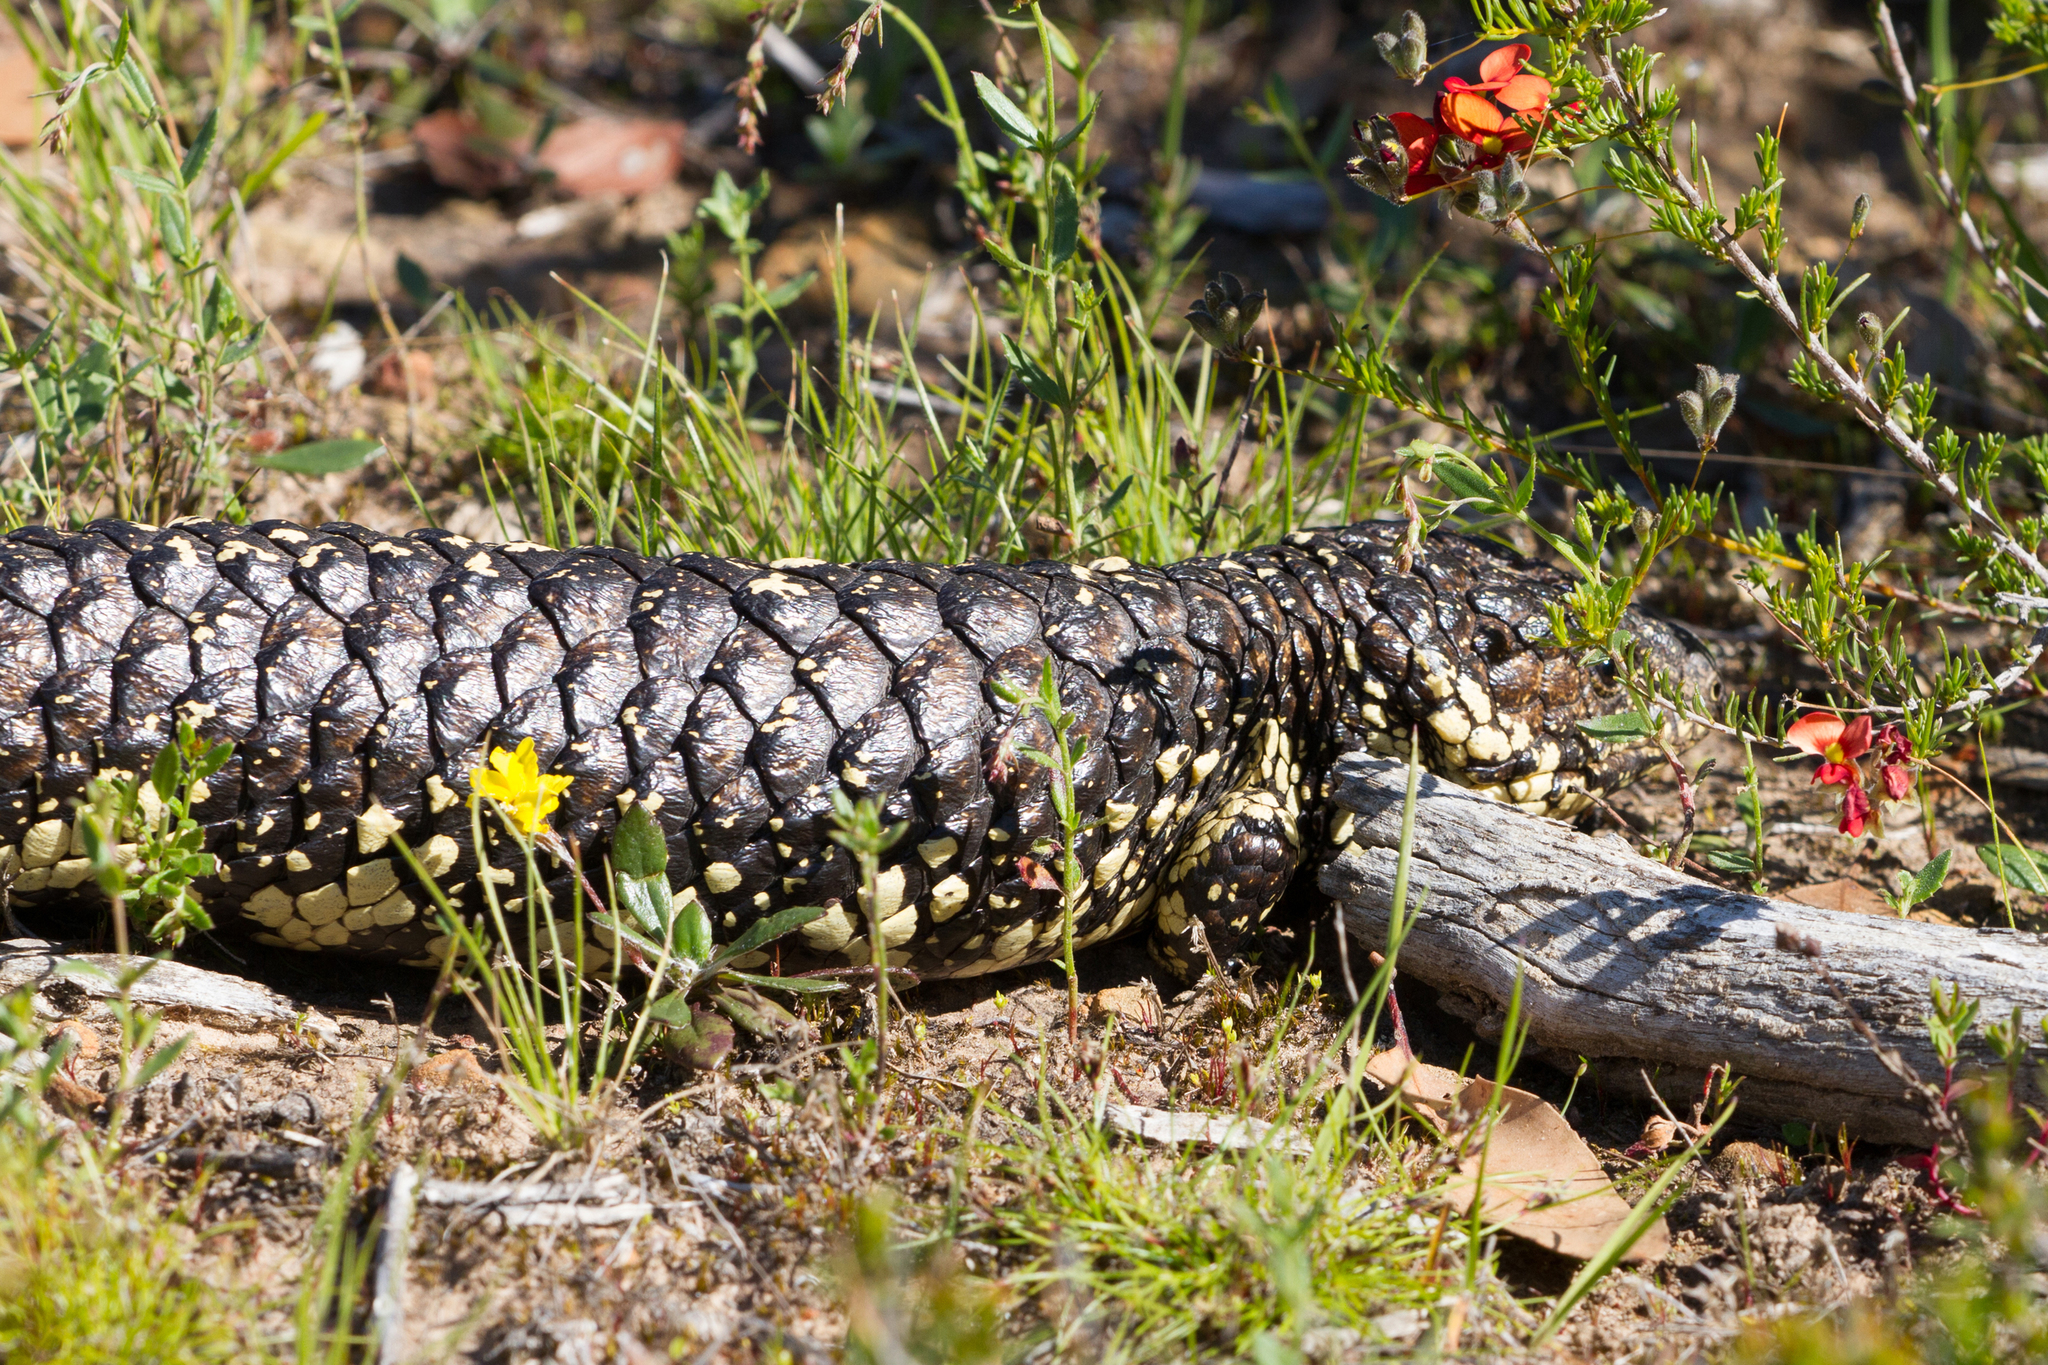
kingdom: Animalia
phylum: Chordata
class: Squamata
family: Scincidae
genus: Tiliqua
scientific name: Tiliqua rugosa
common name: Pinecone lizard
